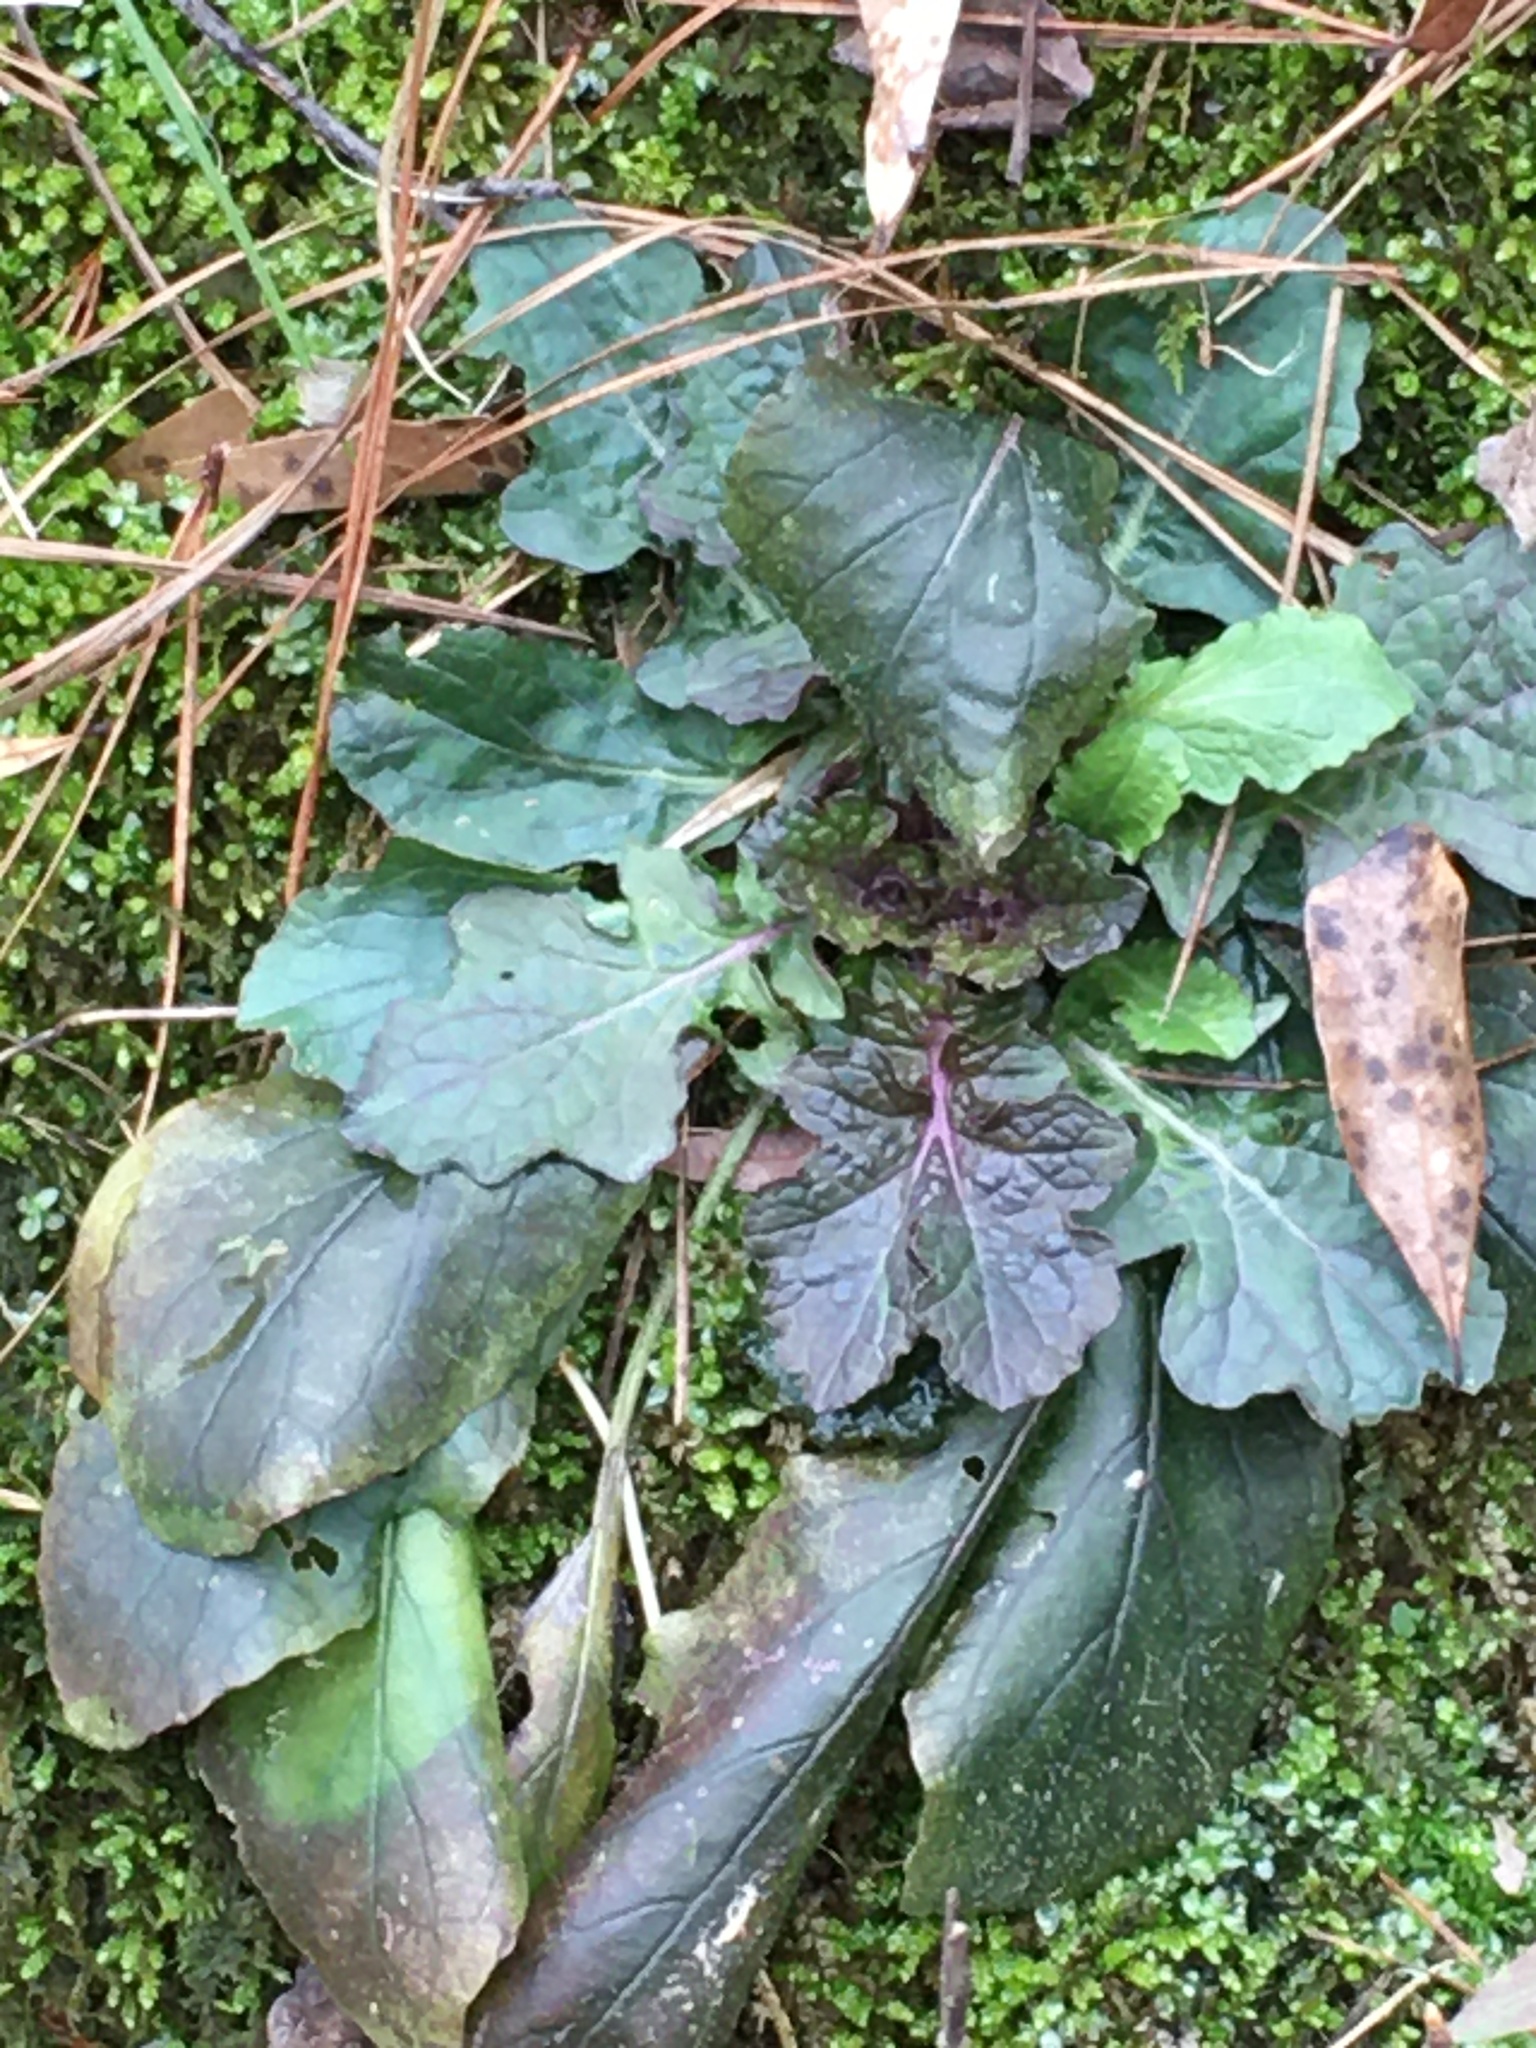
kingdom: Plantae
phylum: Tracheophyta
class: Magnoliopsida
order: Lamiales
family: Lamiaceae
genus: Salvia
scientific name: Salvia lyrata
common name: Cancerweed
